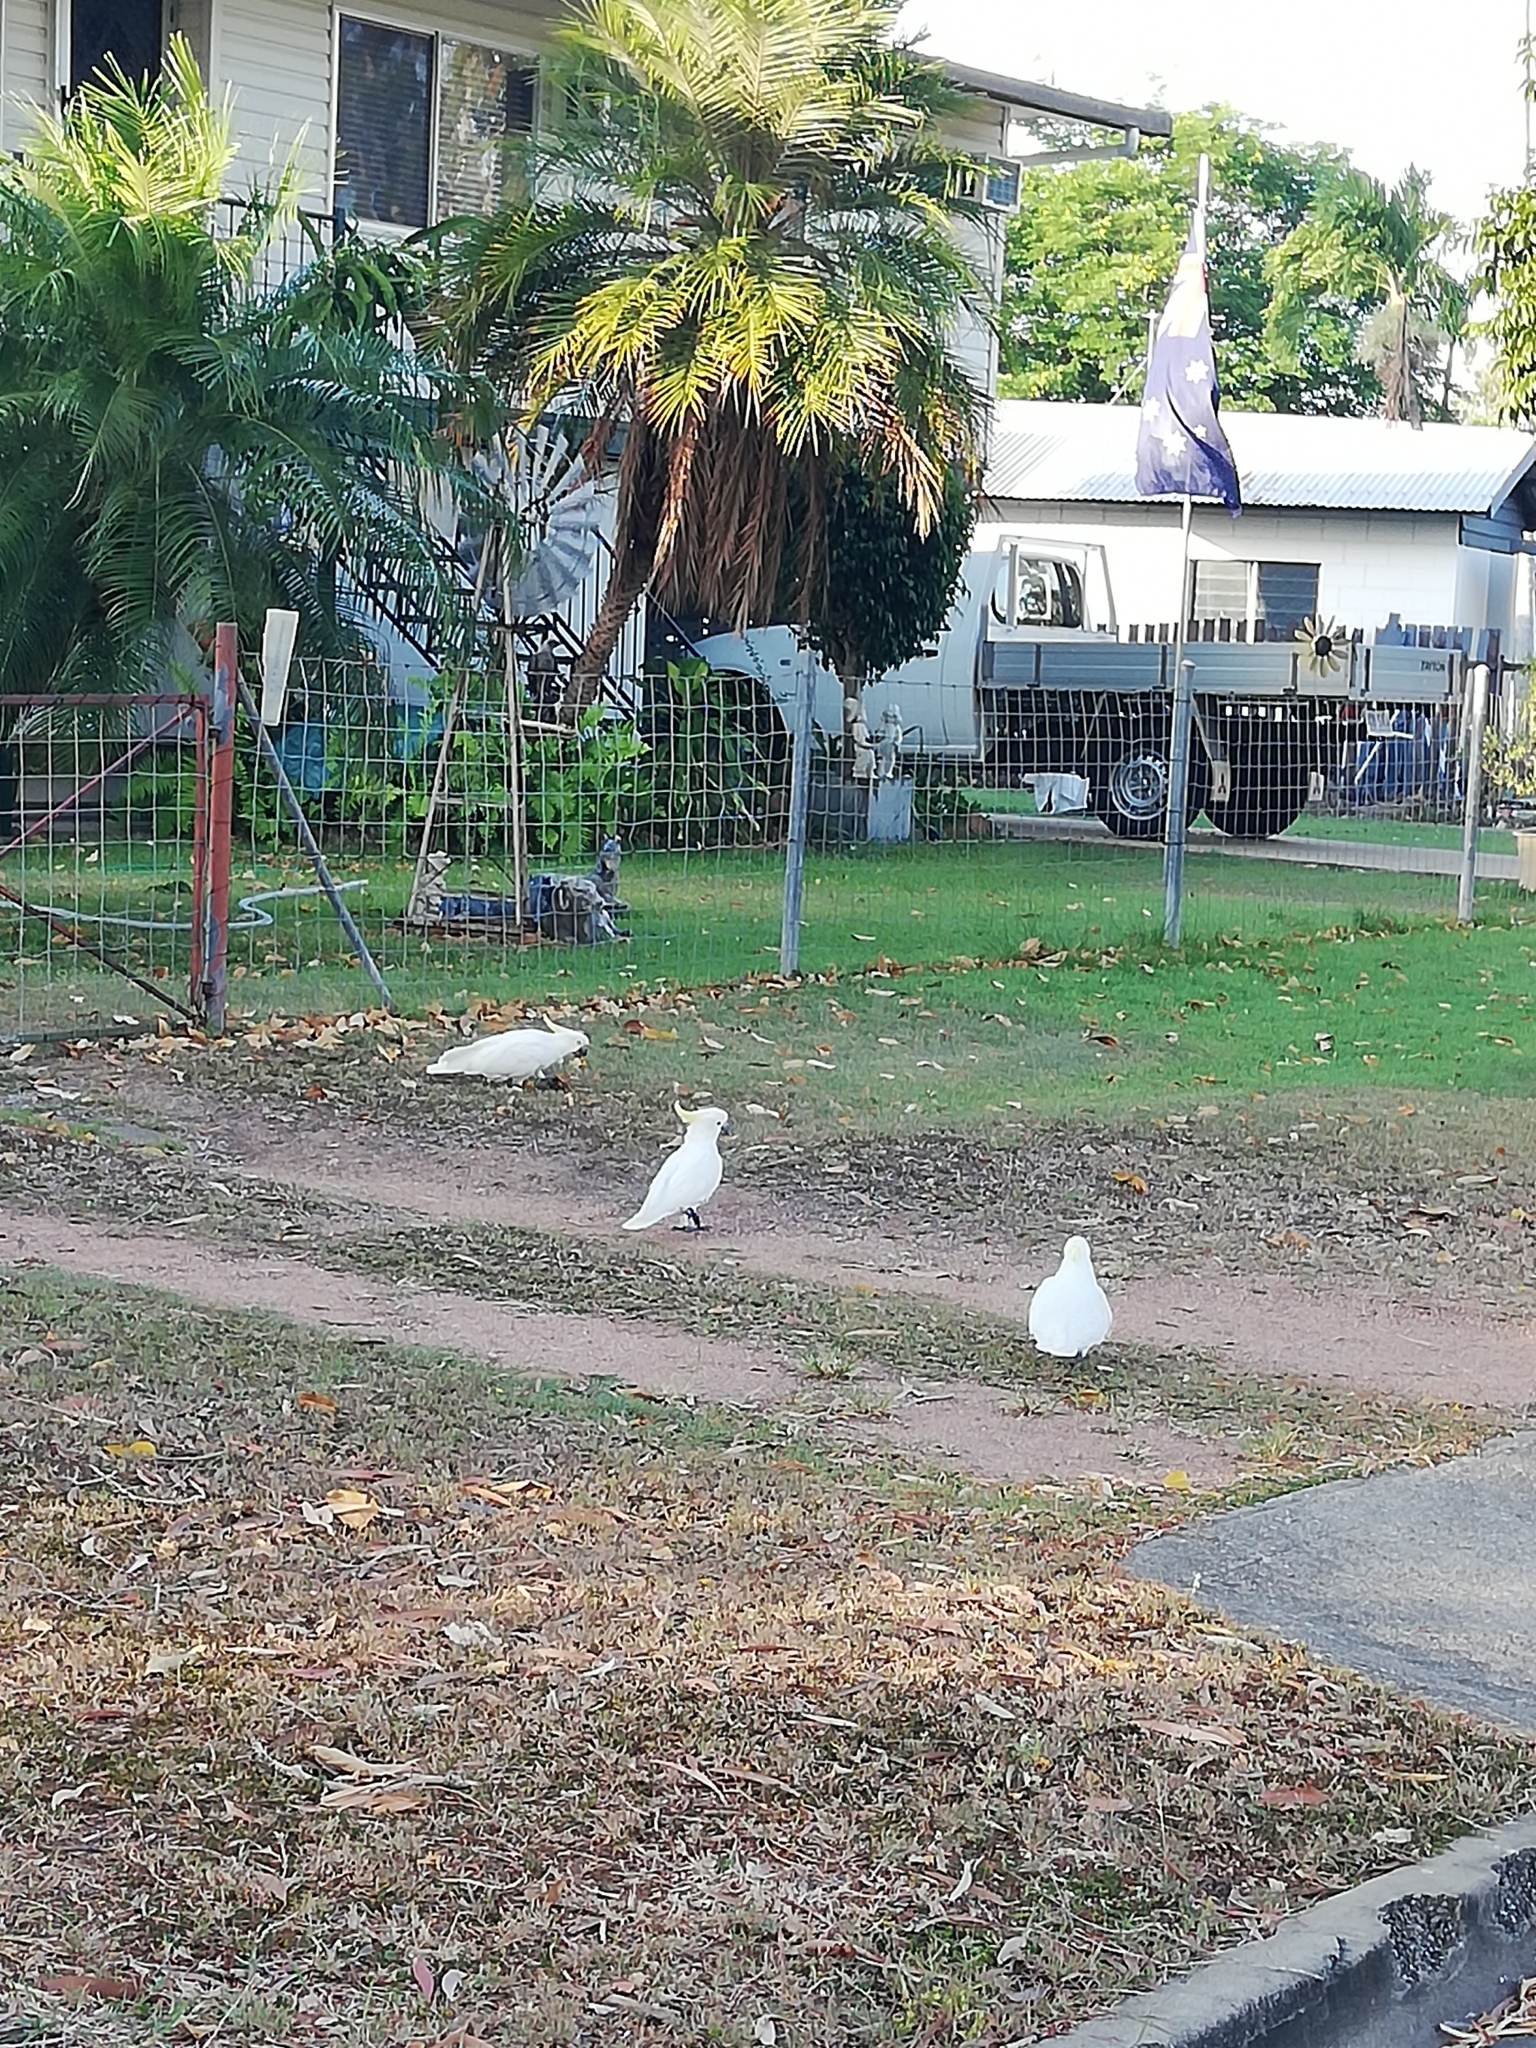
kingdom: Animalia
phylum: Chordata
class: Aves
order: Psittaciformes
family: Psittacidae
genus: Cacatua
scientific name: Cacatua galerita
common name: Sulphur-crested cockatoo
